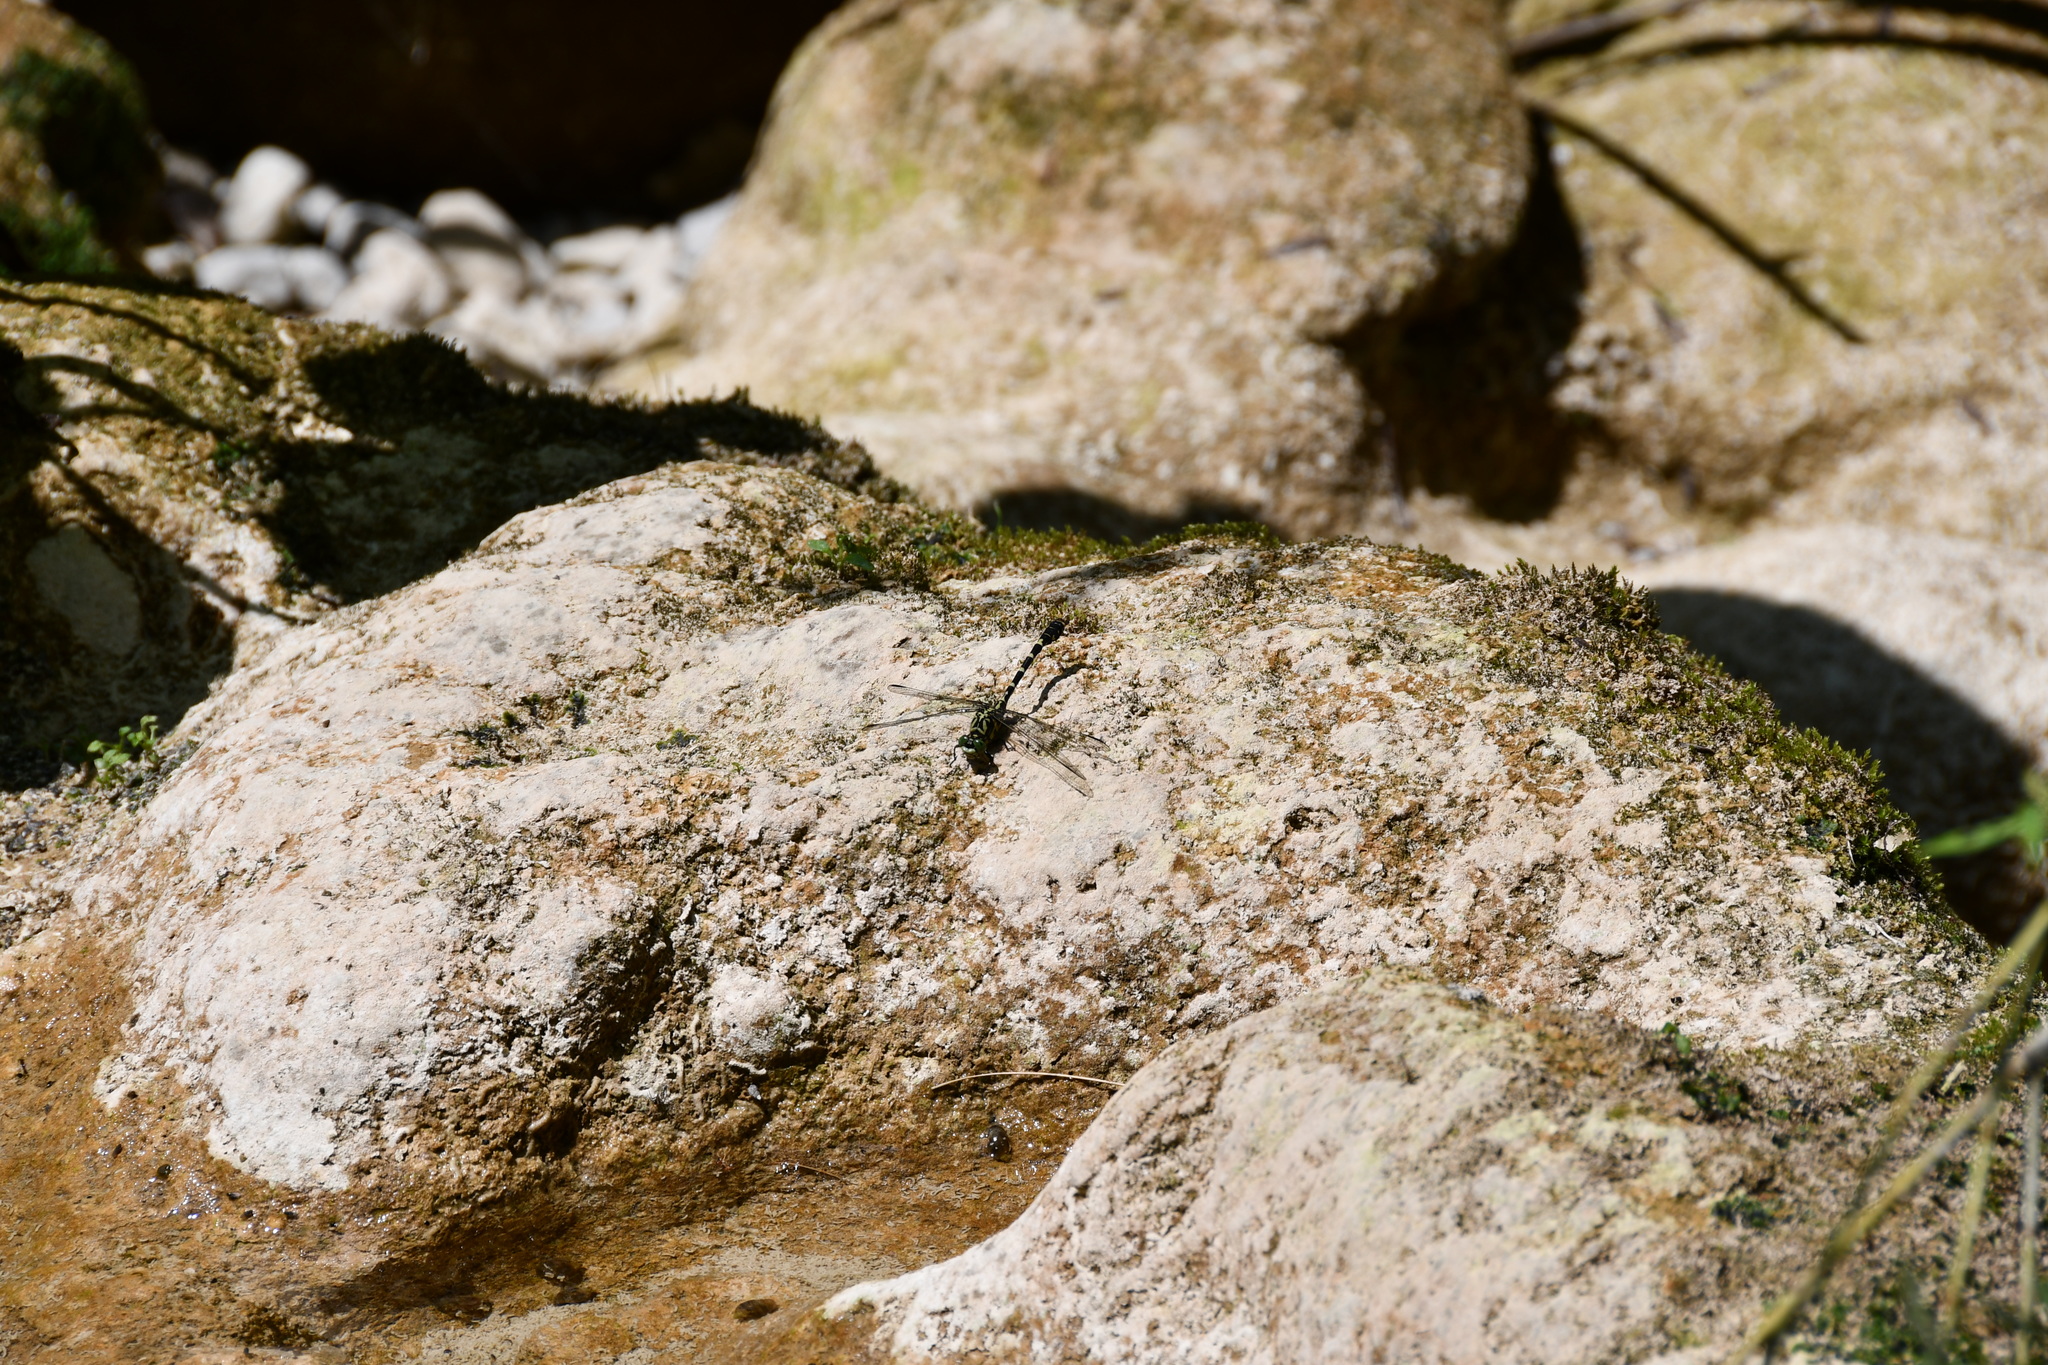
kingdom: Animalia
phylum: Arthropoda
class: Insecta
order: Odonata
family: Gomphidae
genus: Onychogomphus
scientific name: Onychogomphus forcipatus
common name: Small pincertail
